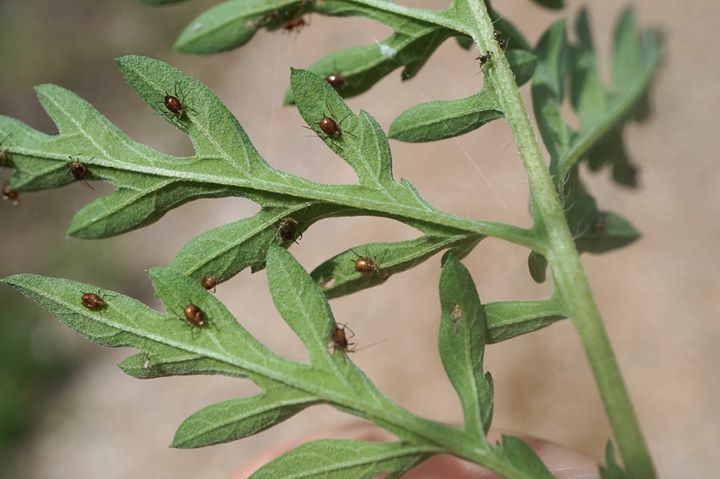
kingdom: Plantae
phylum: Tracheophyta
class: Magnoliopsida
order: Asterales
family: Asteraceae
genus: Ambrosia
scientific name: Ambrosia artemisiifolia
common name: Annual ragweed
